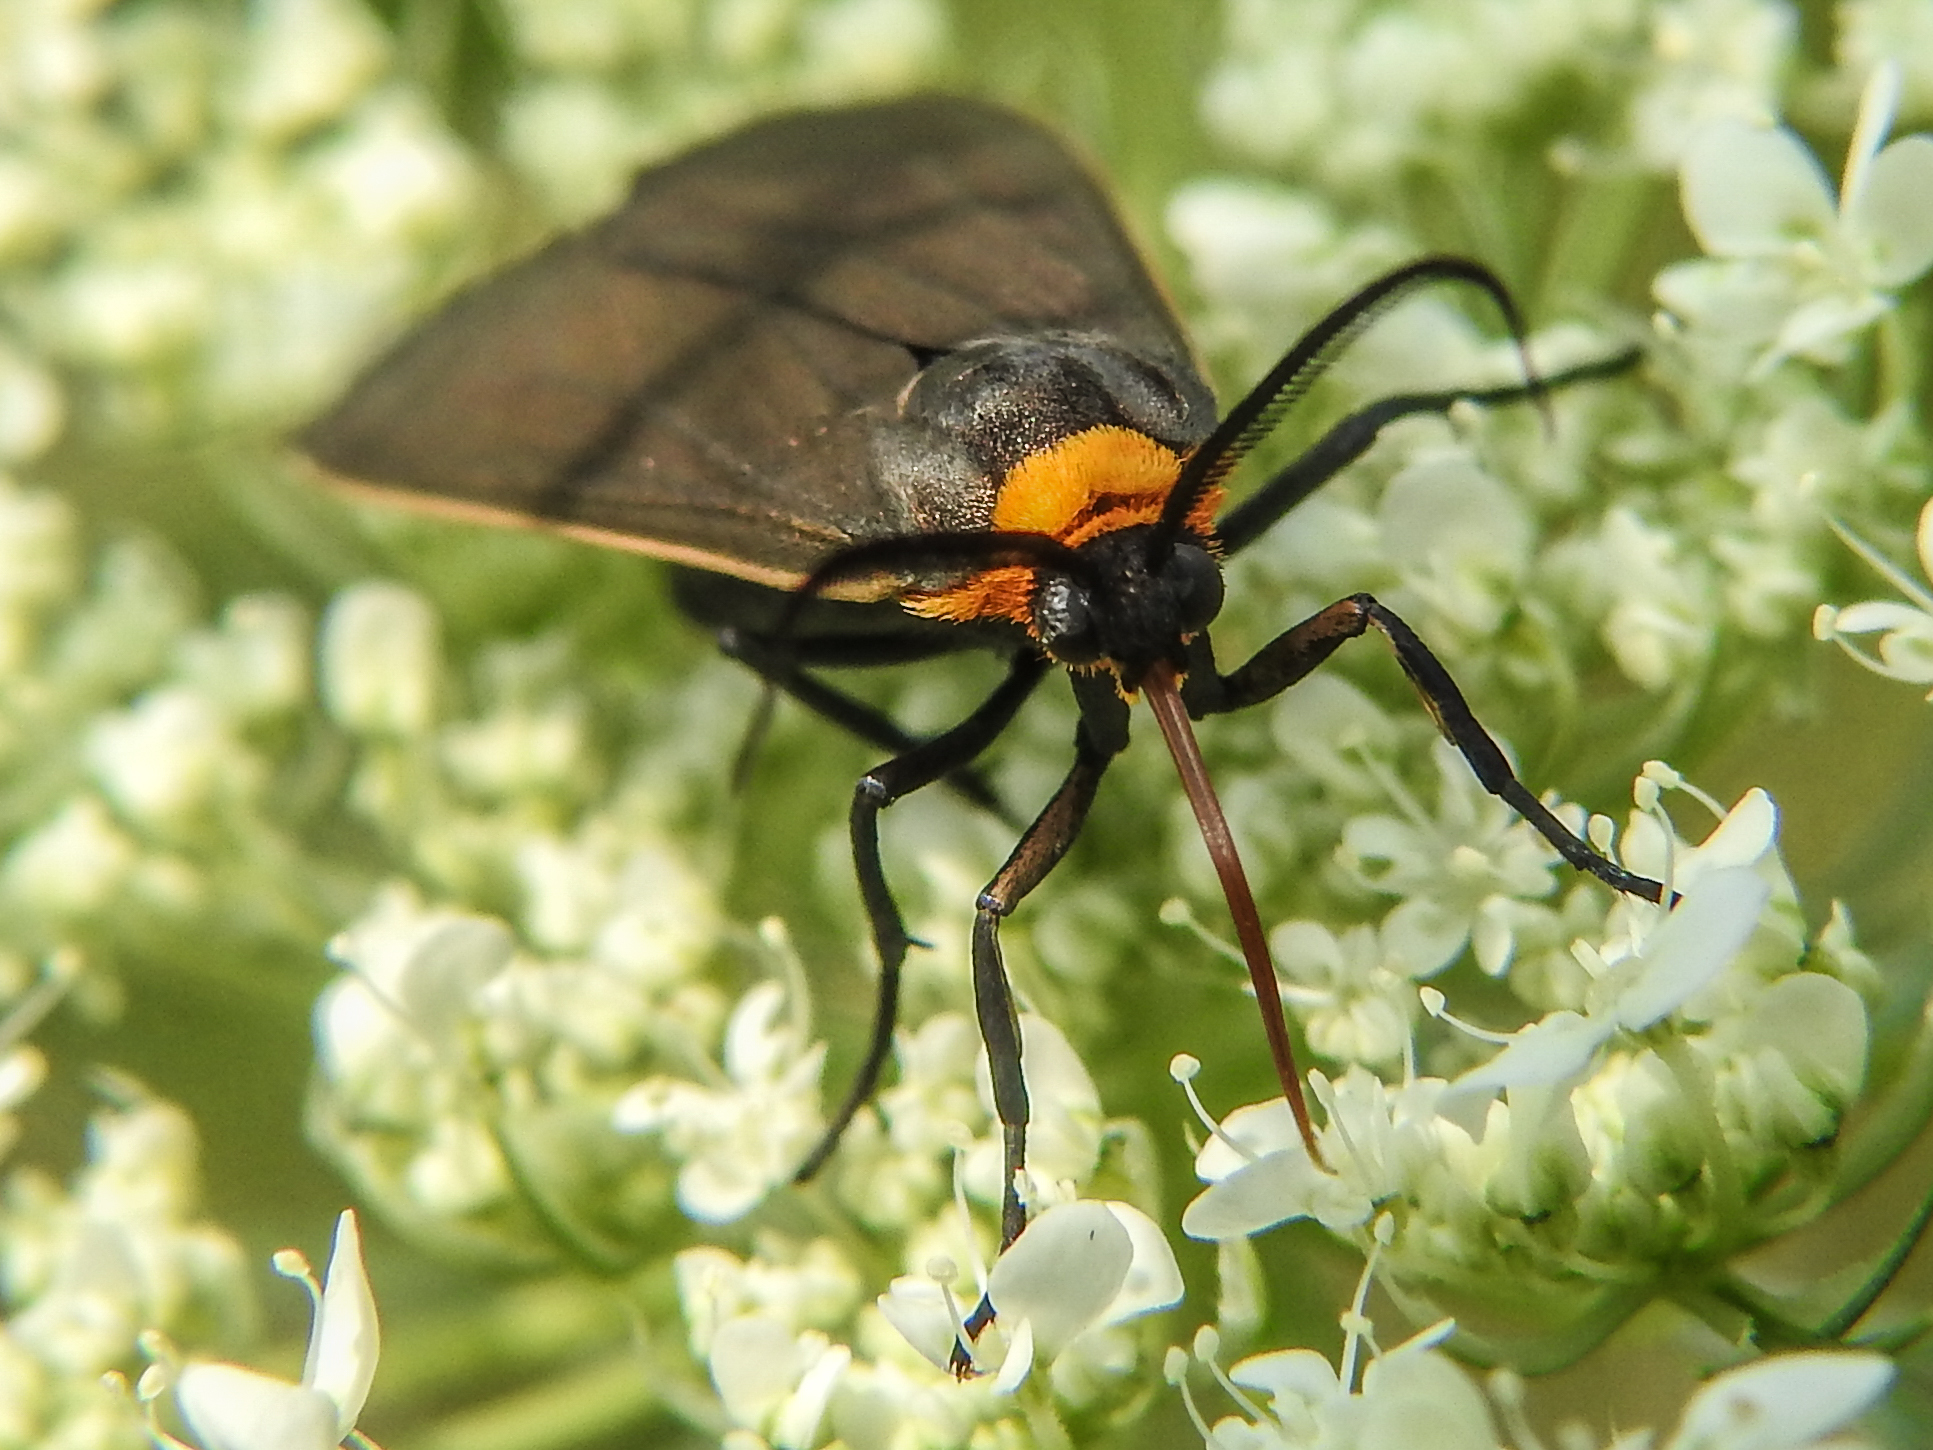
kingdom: Animalia
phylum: Arthropoda
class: Insecta
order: Lepidoptera
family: Erebidae
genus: Cisseps
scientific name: Cisseps fulvicollis
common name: Yellow-collared scape moth
